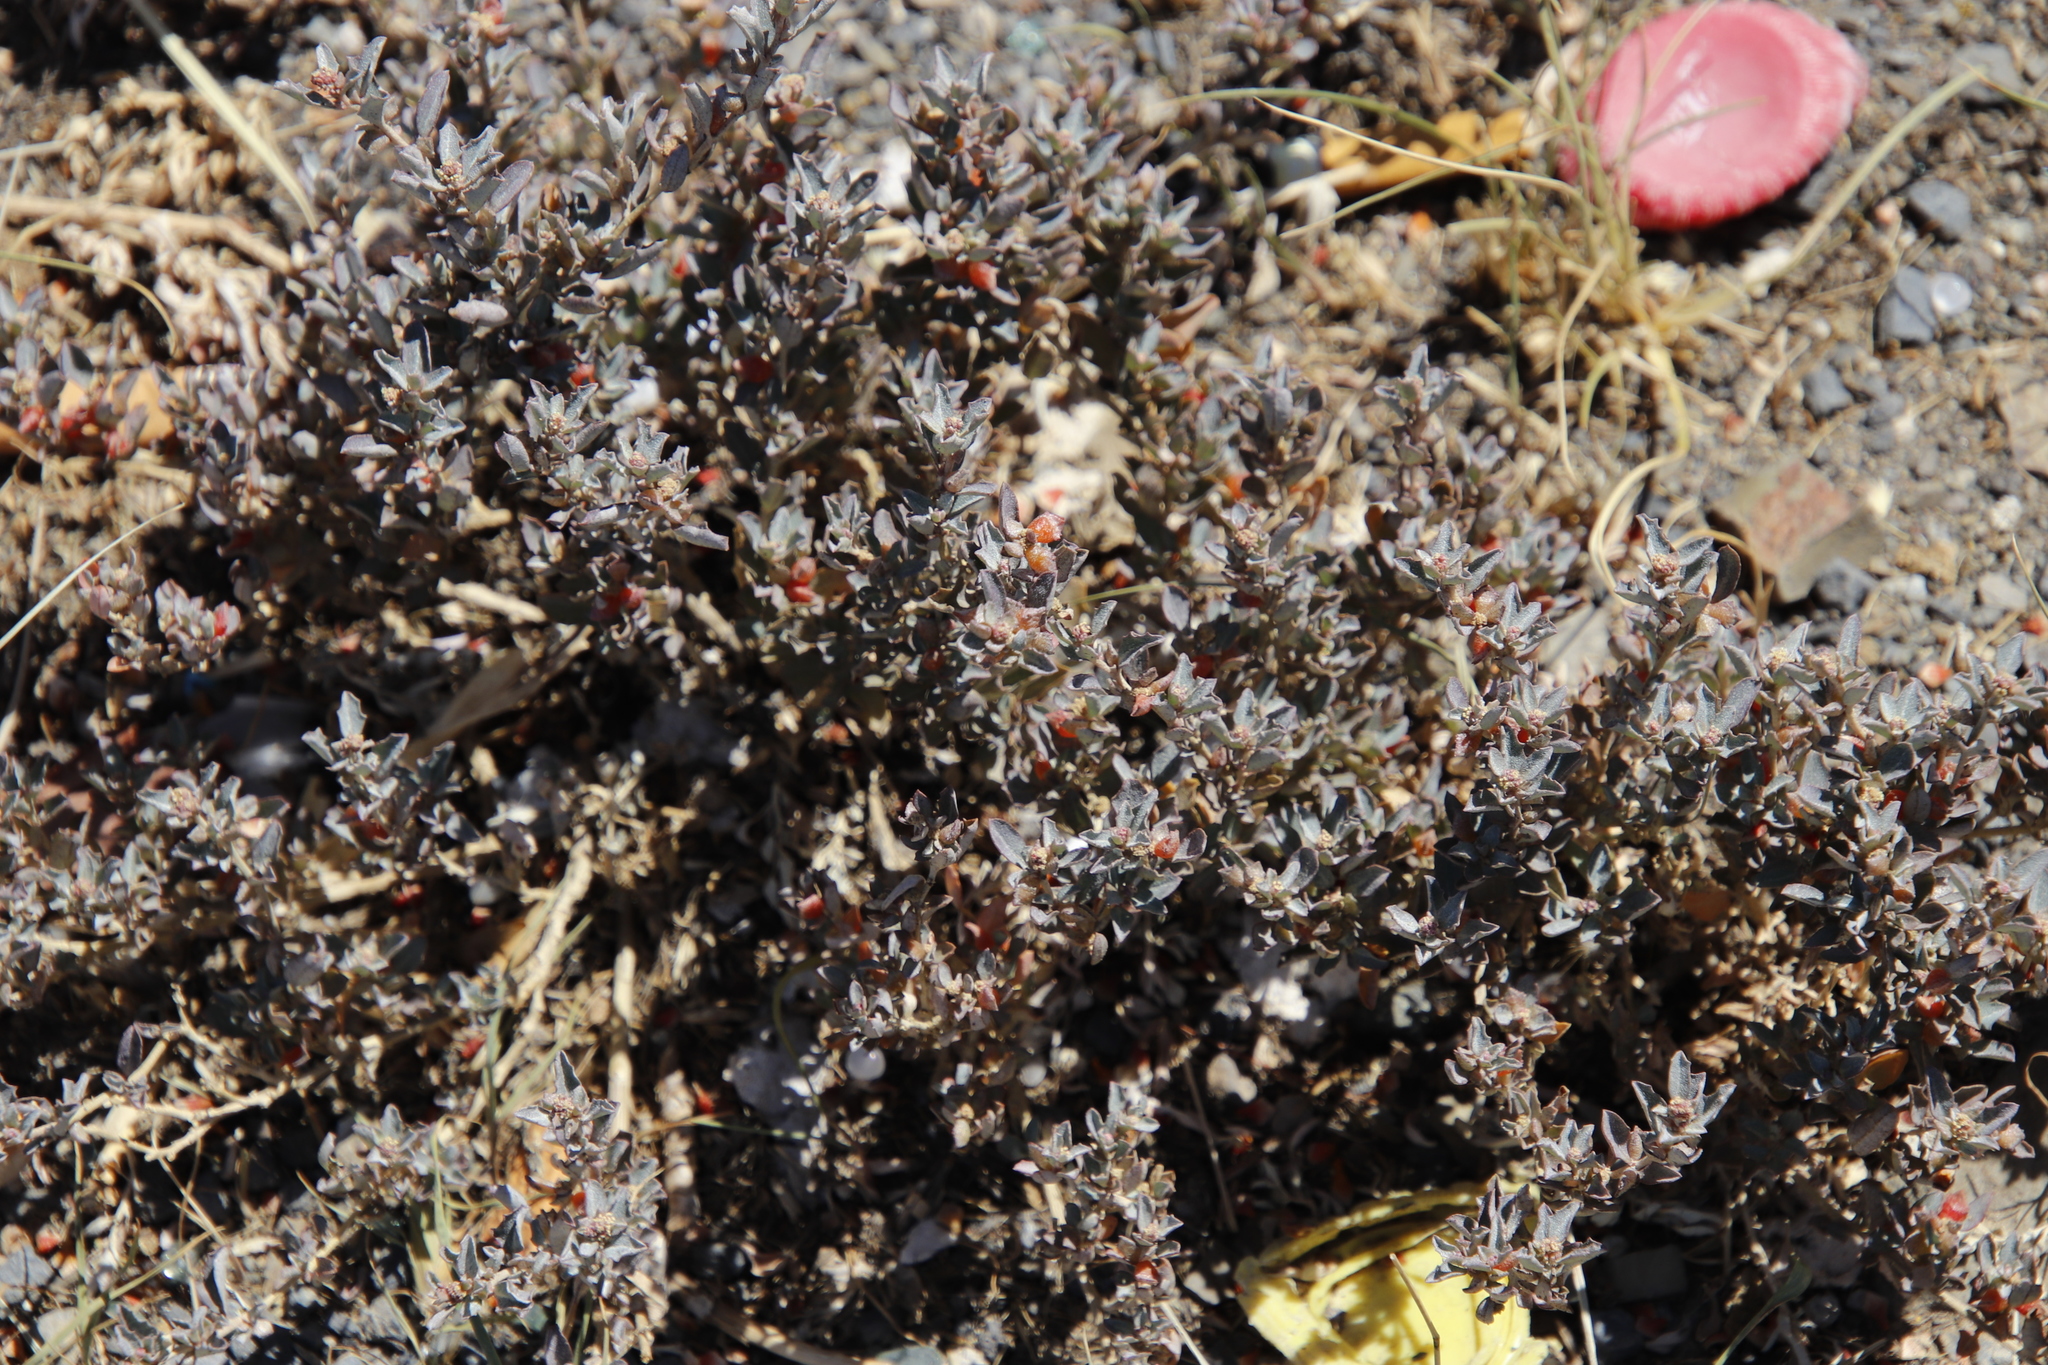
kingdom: Plantae
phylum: Tracheophyta
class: Magnoliopsida
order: Caryophyllales
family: Amaranthaceae
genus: Atriplex
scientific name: Atriplex semibaccata
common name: Australian saltbush
